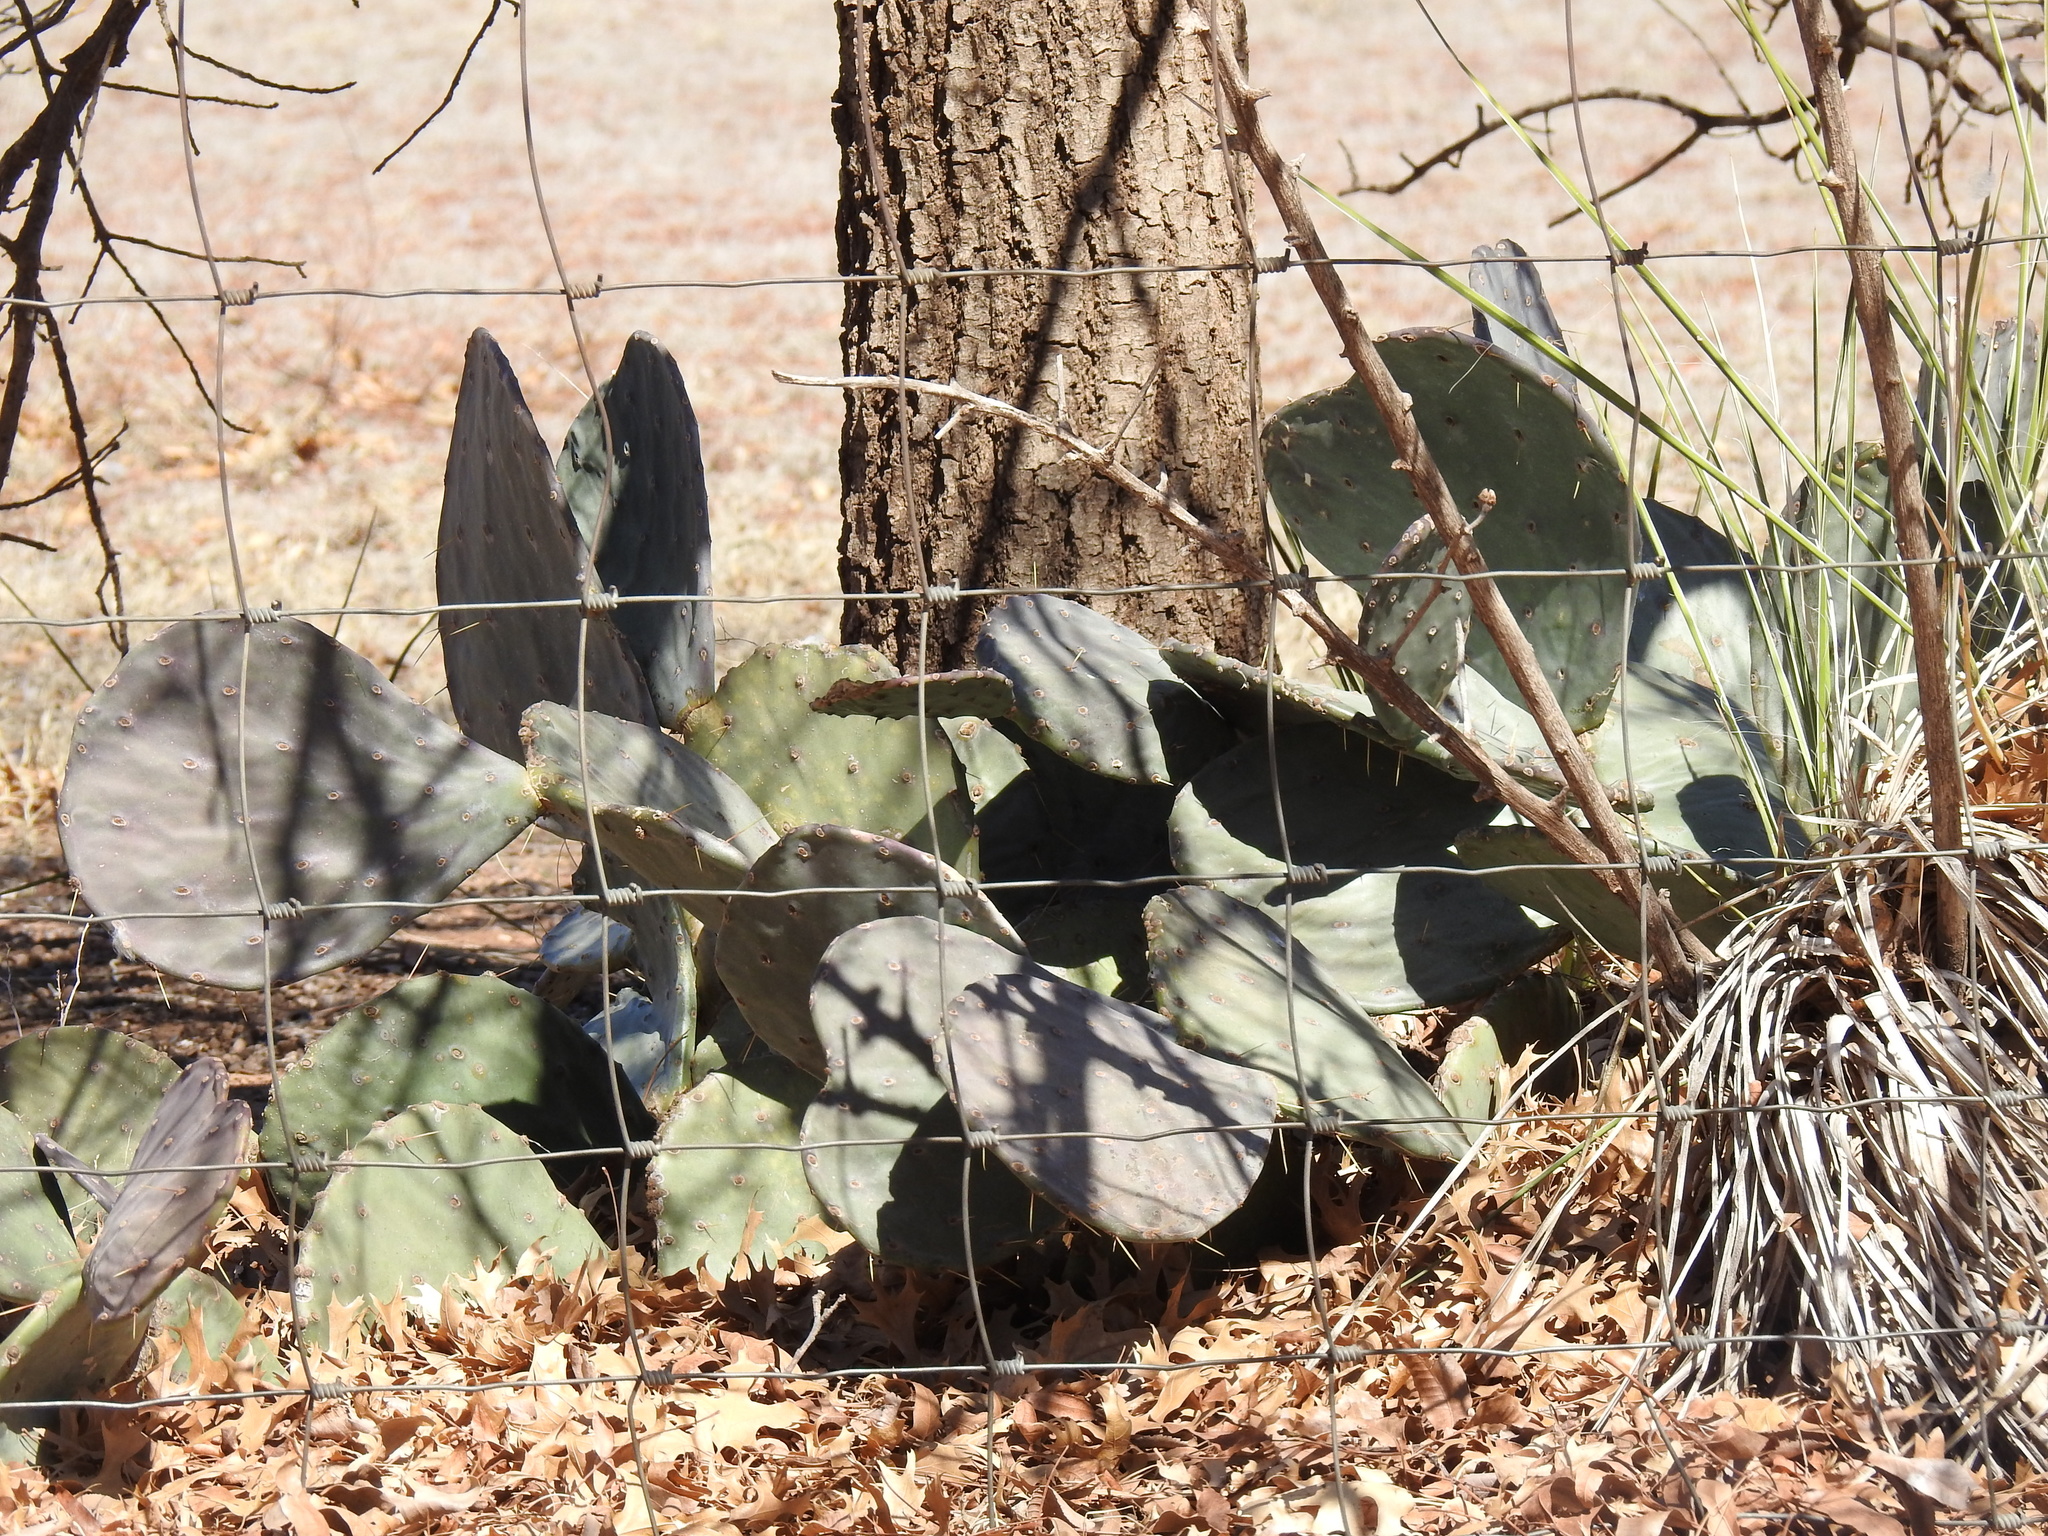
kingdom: Plantae
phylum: Tracheophyta
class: Magnoliopsida
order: Caryophyllales
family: Cactaceae
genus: Opuntia
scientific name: Opuntia orbiculata
